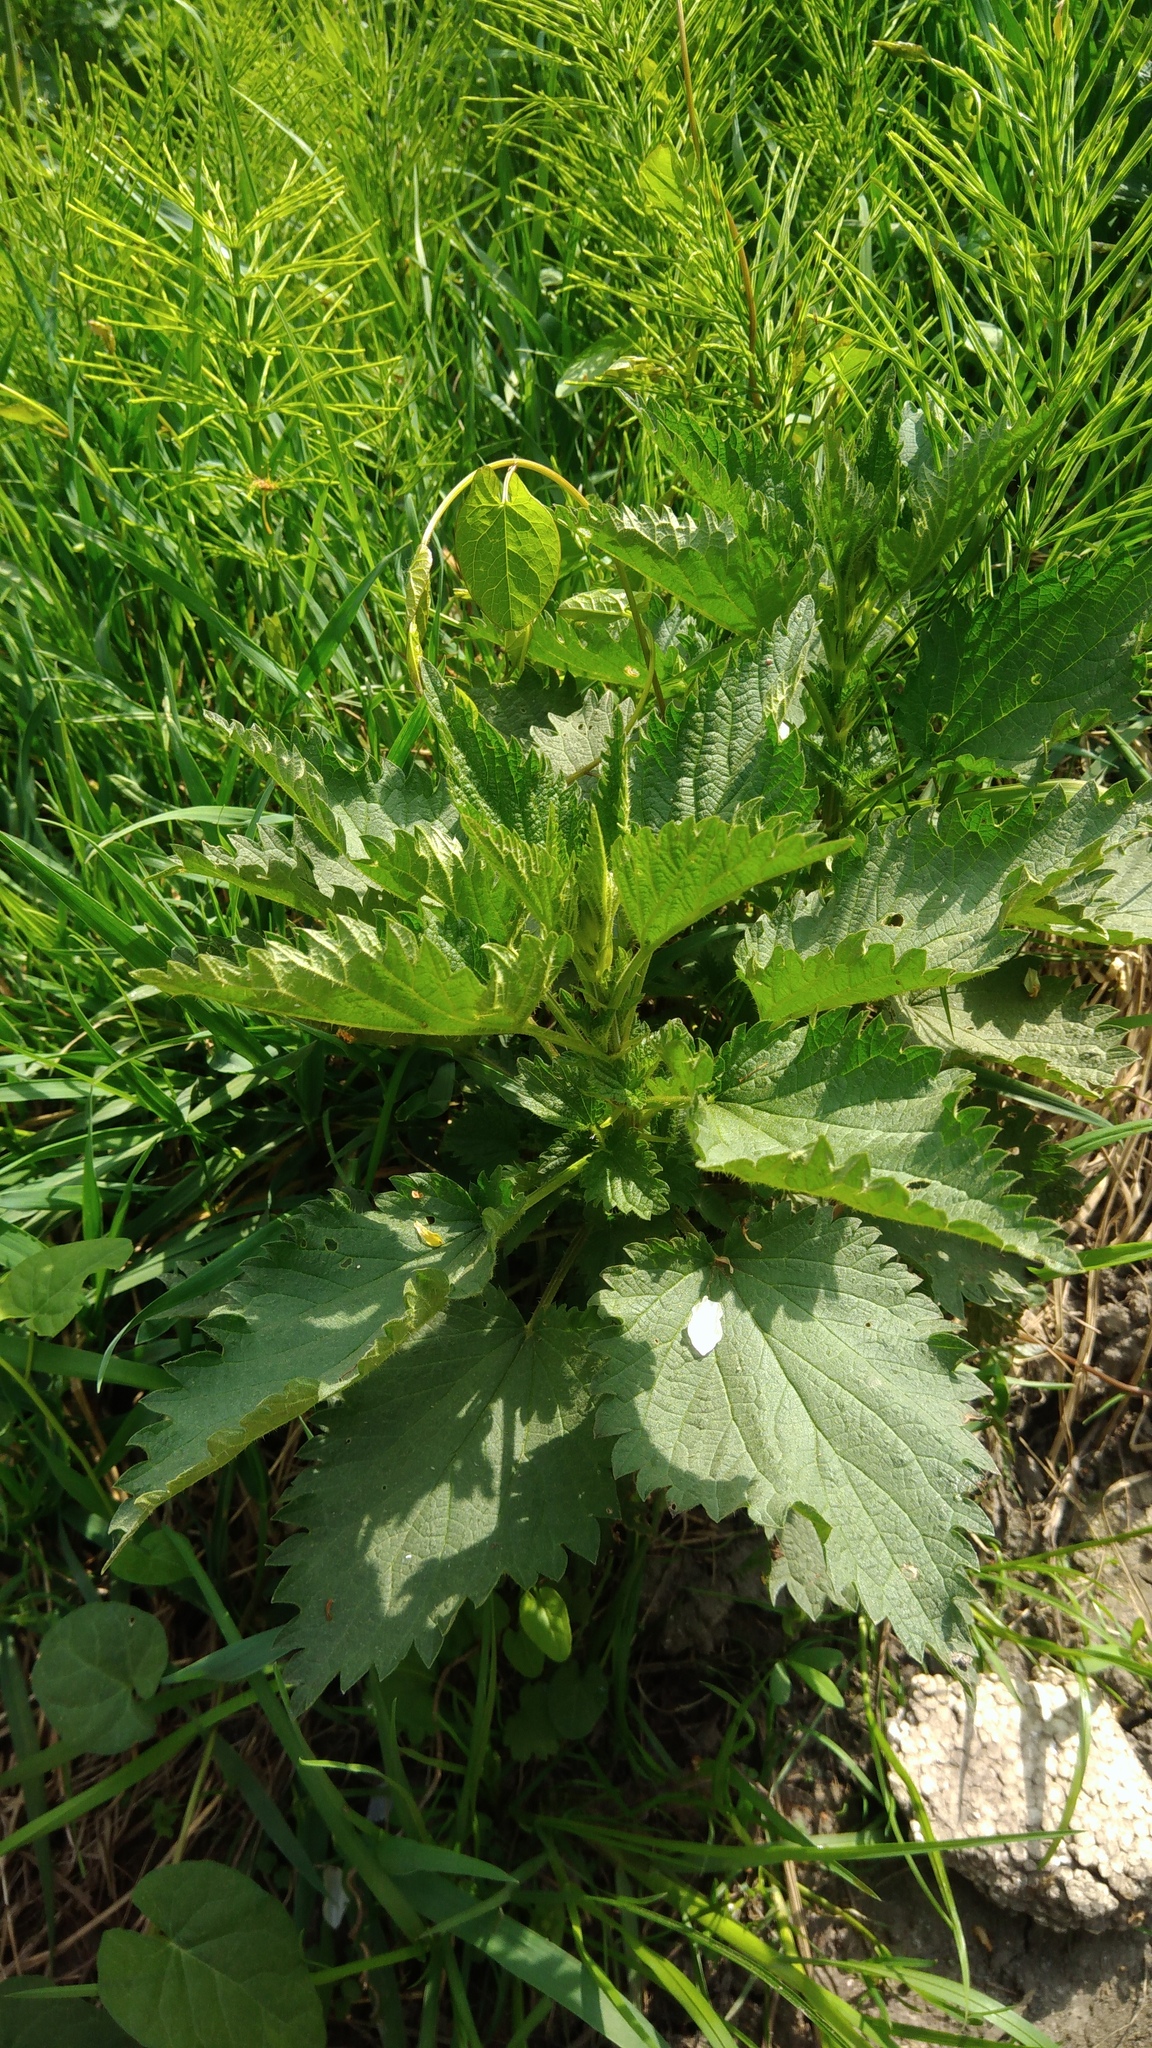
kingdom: Plantae
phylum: Tracheophyta
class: Magnoliopsida
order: Rosales
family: Urticaceae
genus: Urtica
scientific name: Urtica dioica
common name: Common nettle
